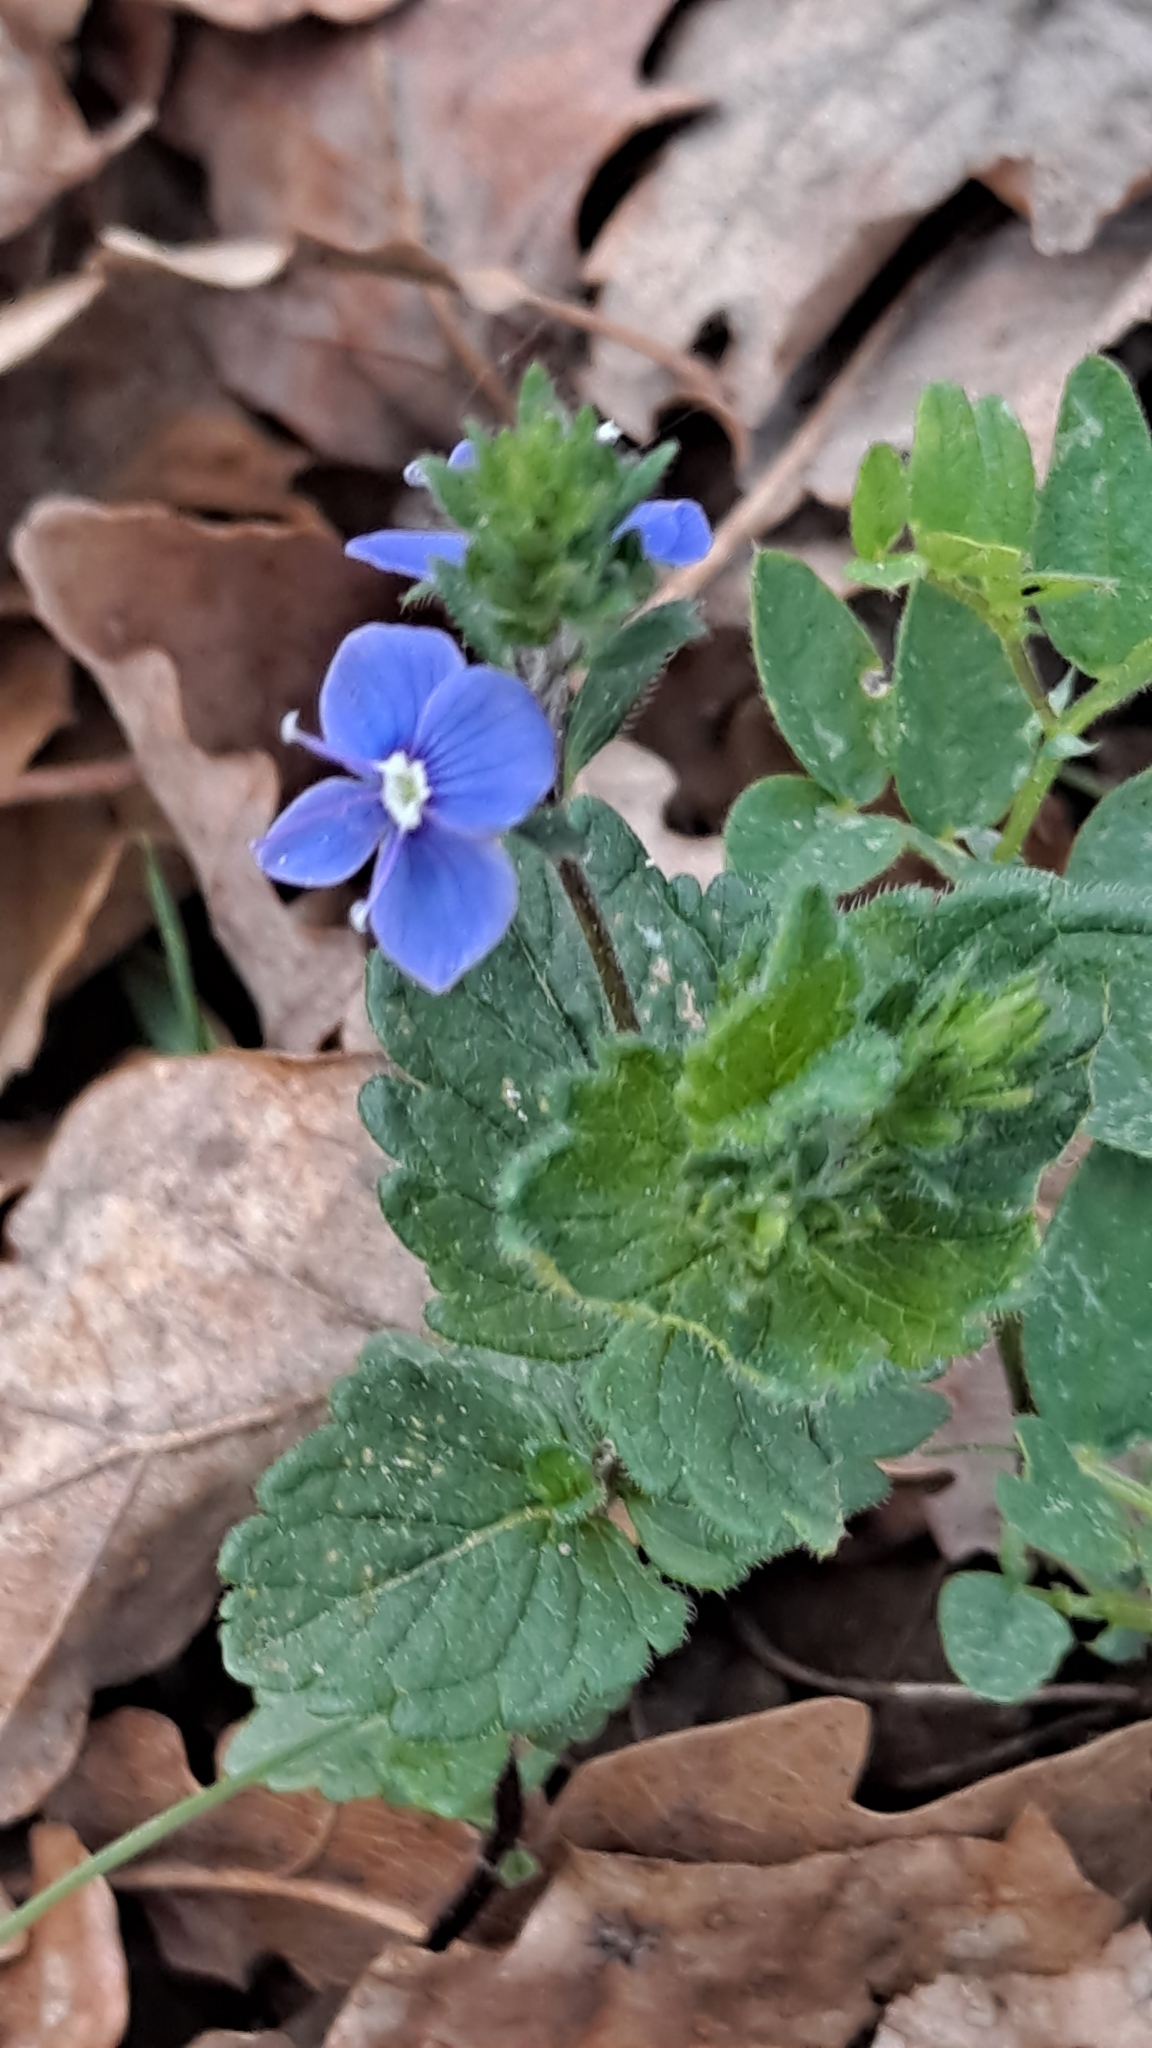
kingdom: Plantae
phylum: Tracheophyta
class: Magnoliopsida
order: Lamiales
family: Plantaginaceae
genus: Veronica
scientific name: Veronica chamaedrys
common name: Germander speedwell
